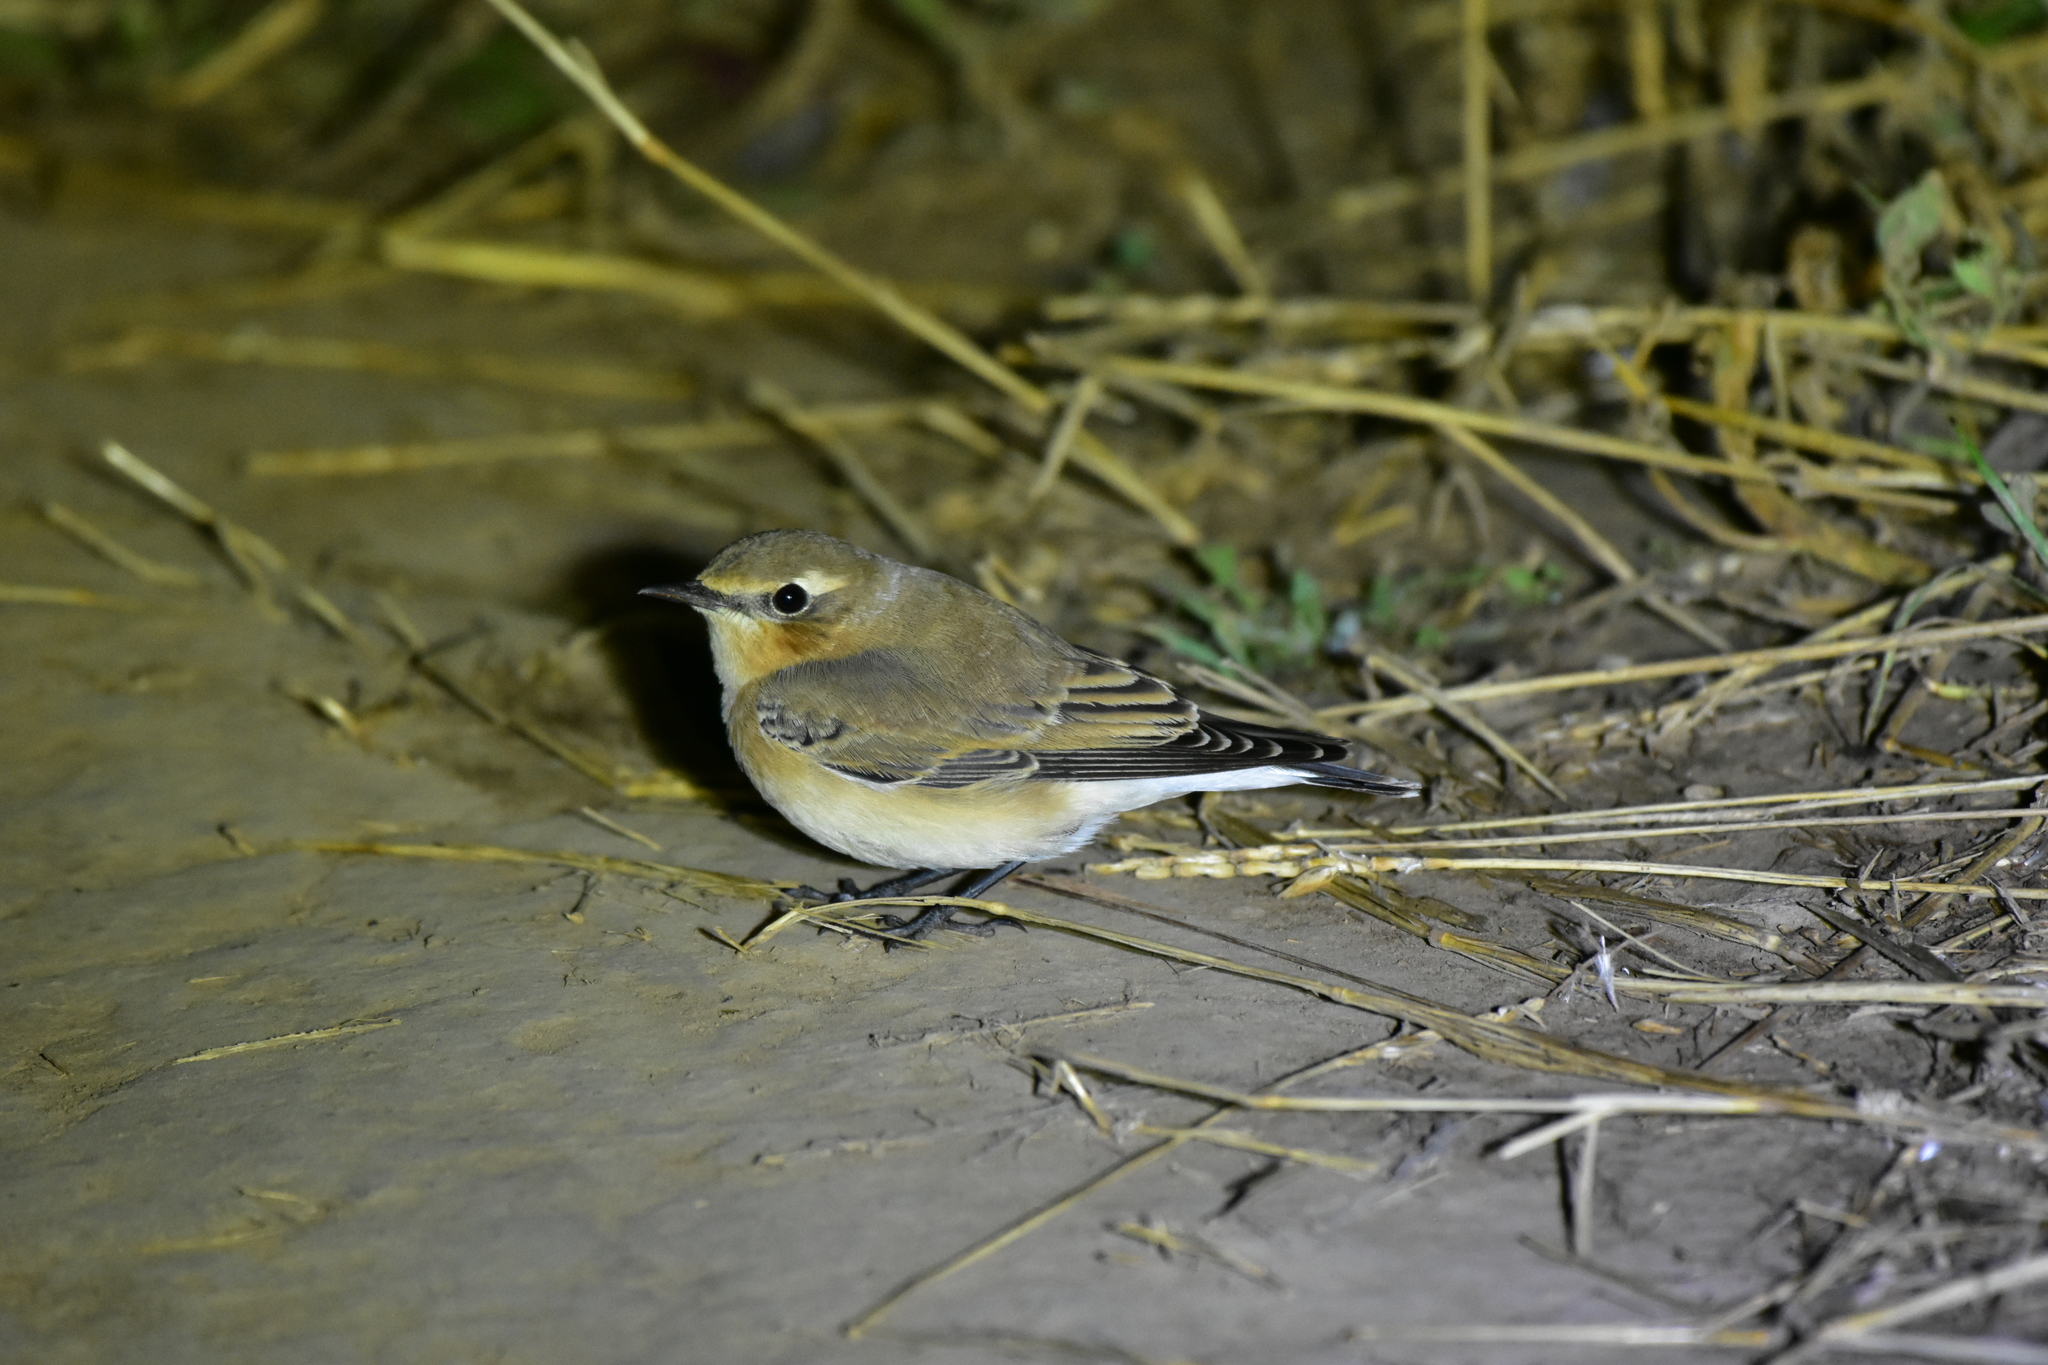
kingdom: Animalia
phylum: Chordata
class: Aves
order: Passeriformes
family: Muscicapidae
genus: Oenanthe
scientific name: Oenanthe oenanthe
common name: Northern wheatear
